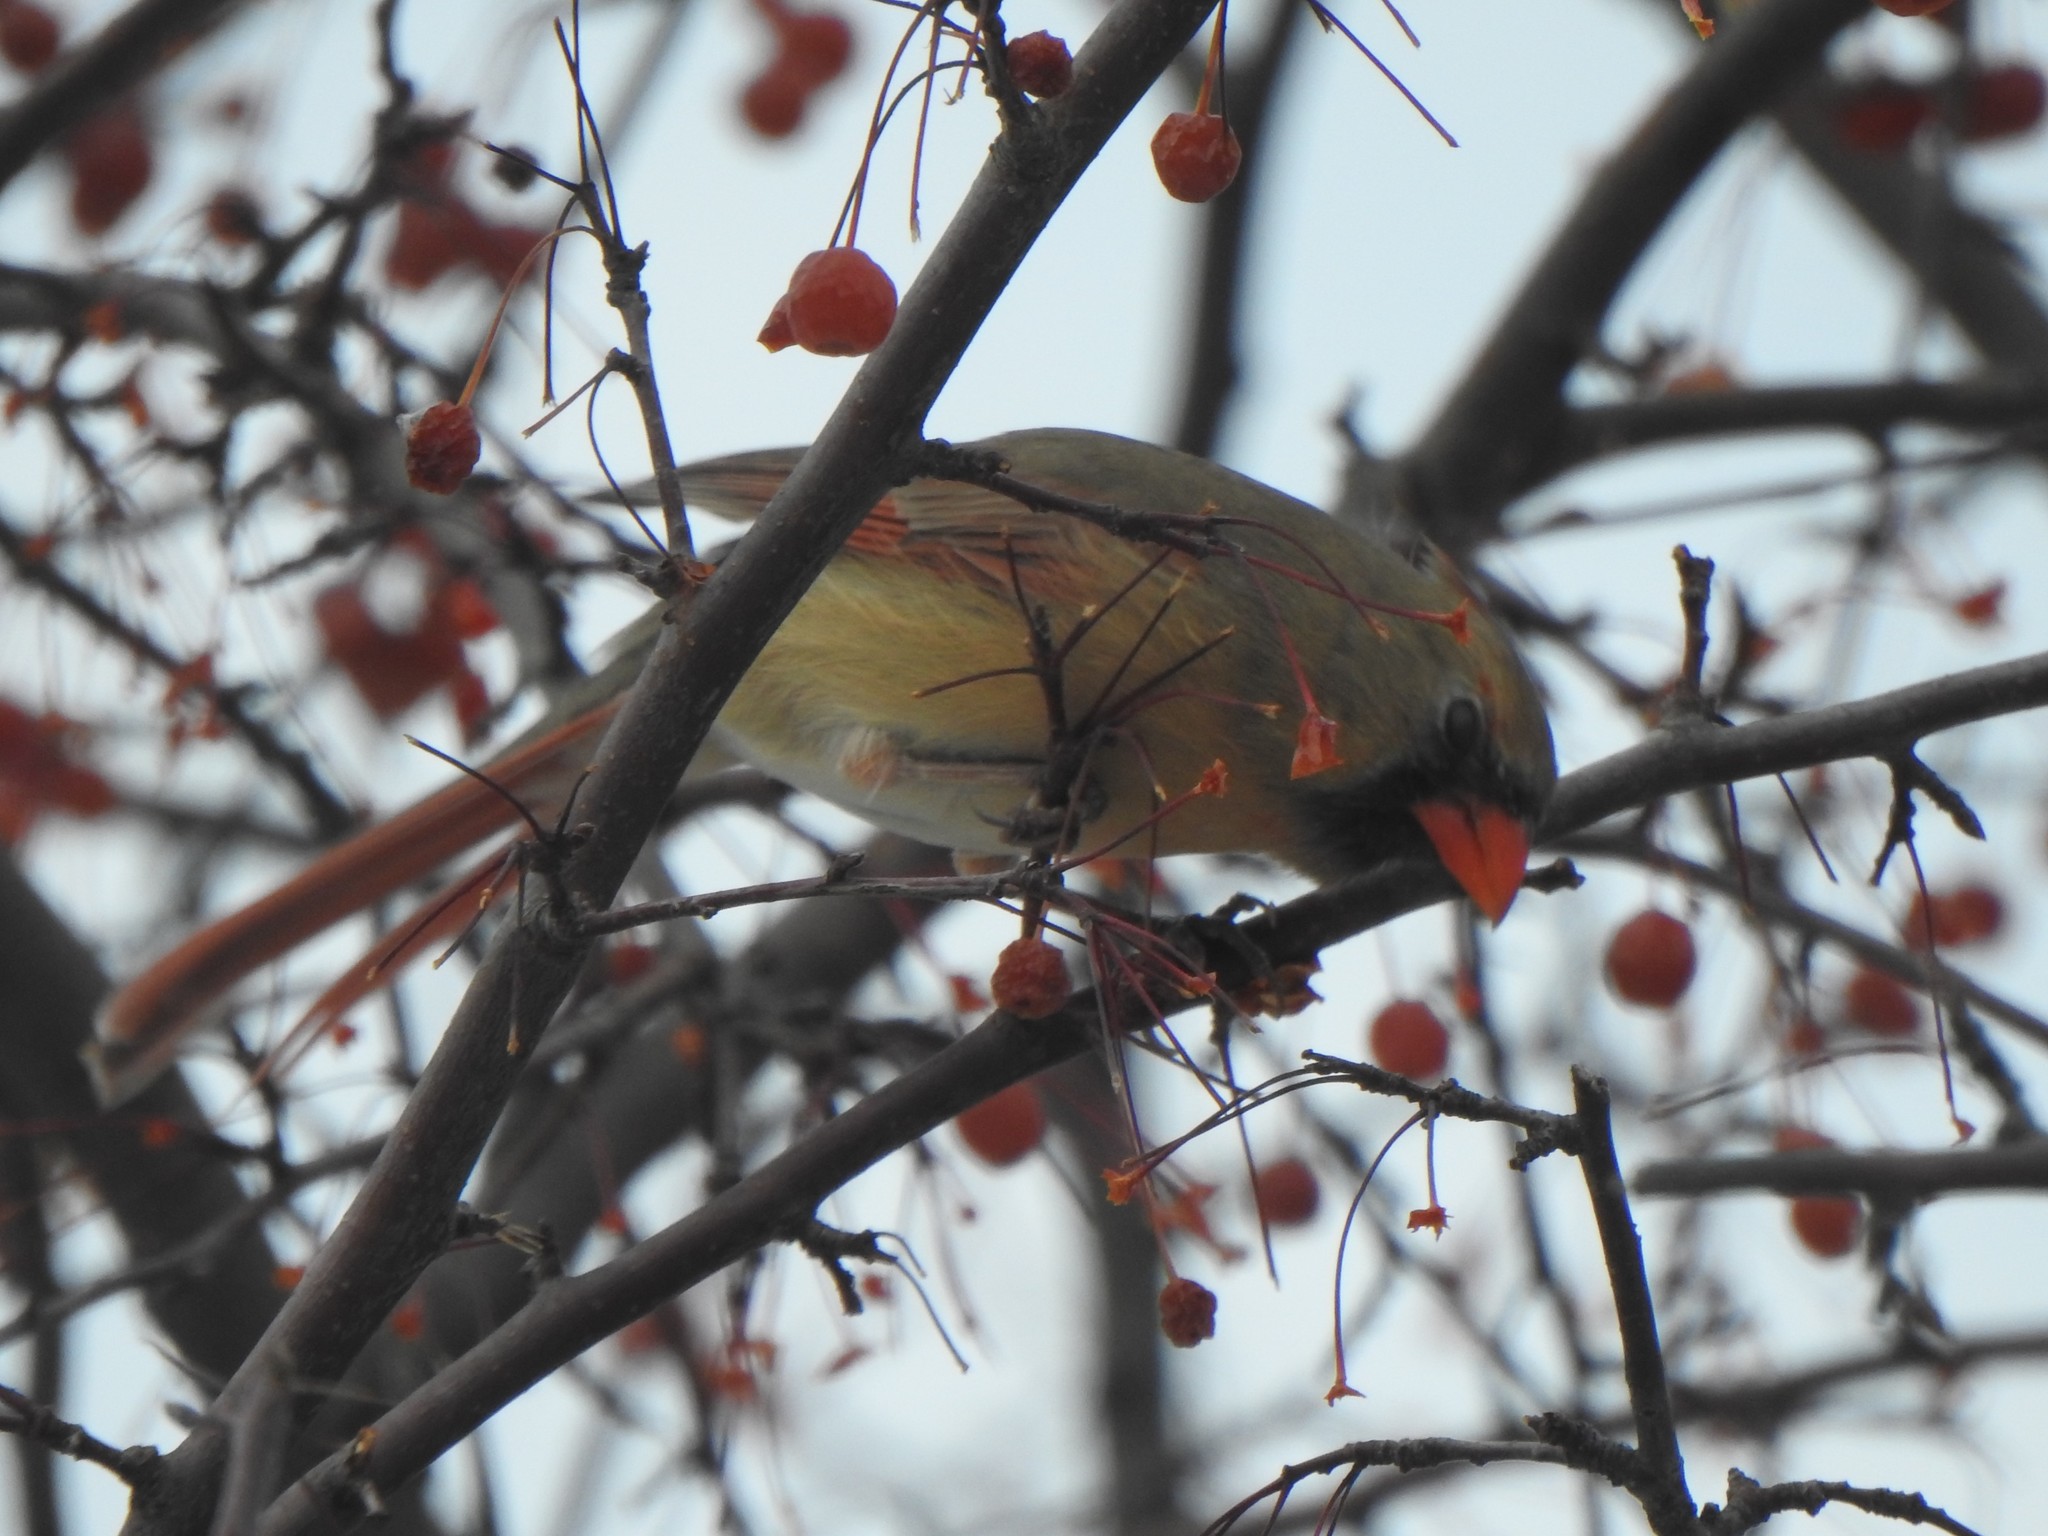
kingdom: Animalia
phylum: Chordata
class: Aves
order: Passeriformes
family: Cardinalidae
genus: Cardinalis
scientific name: Cardinalis cardinalis
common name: Northern cardinal
